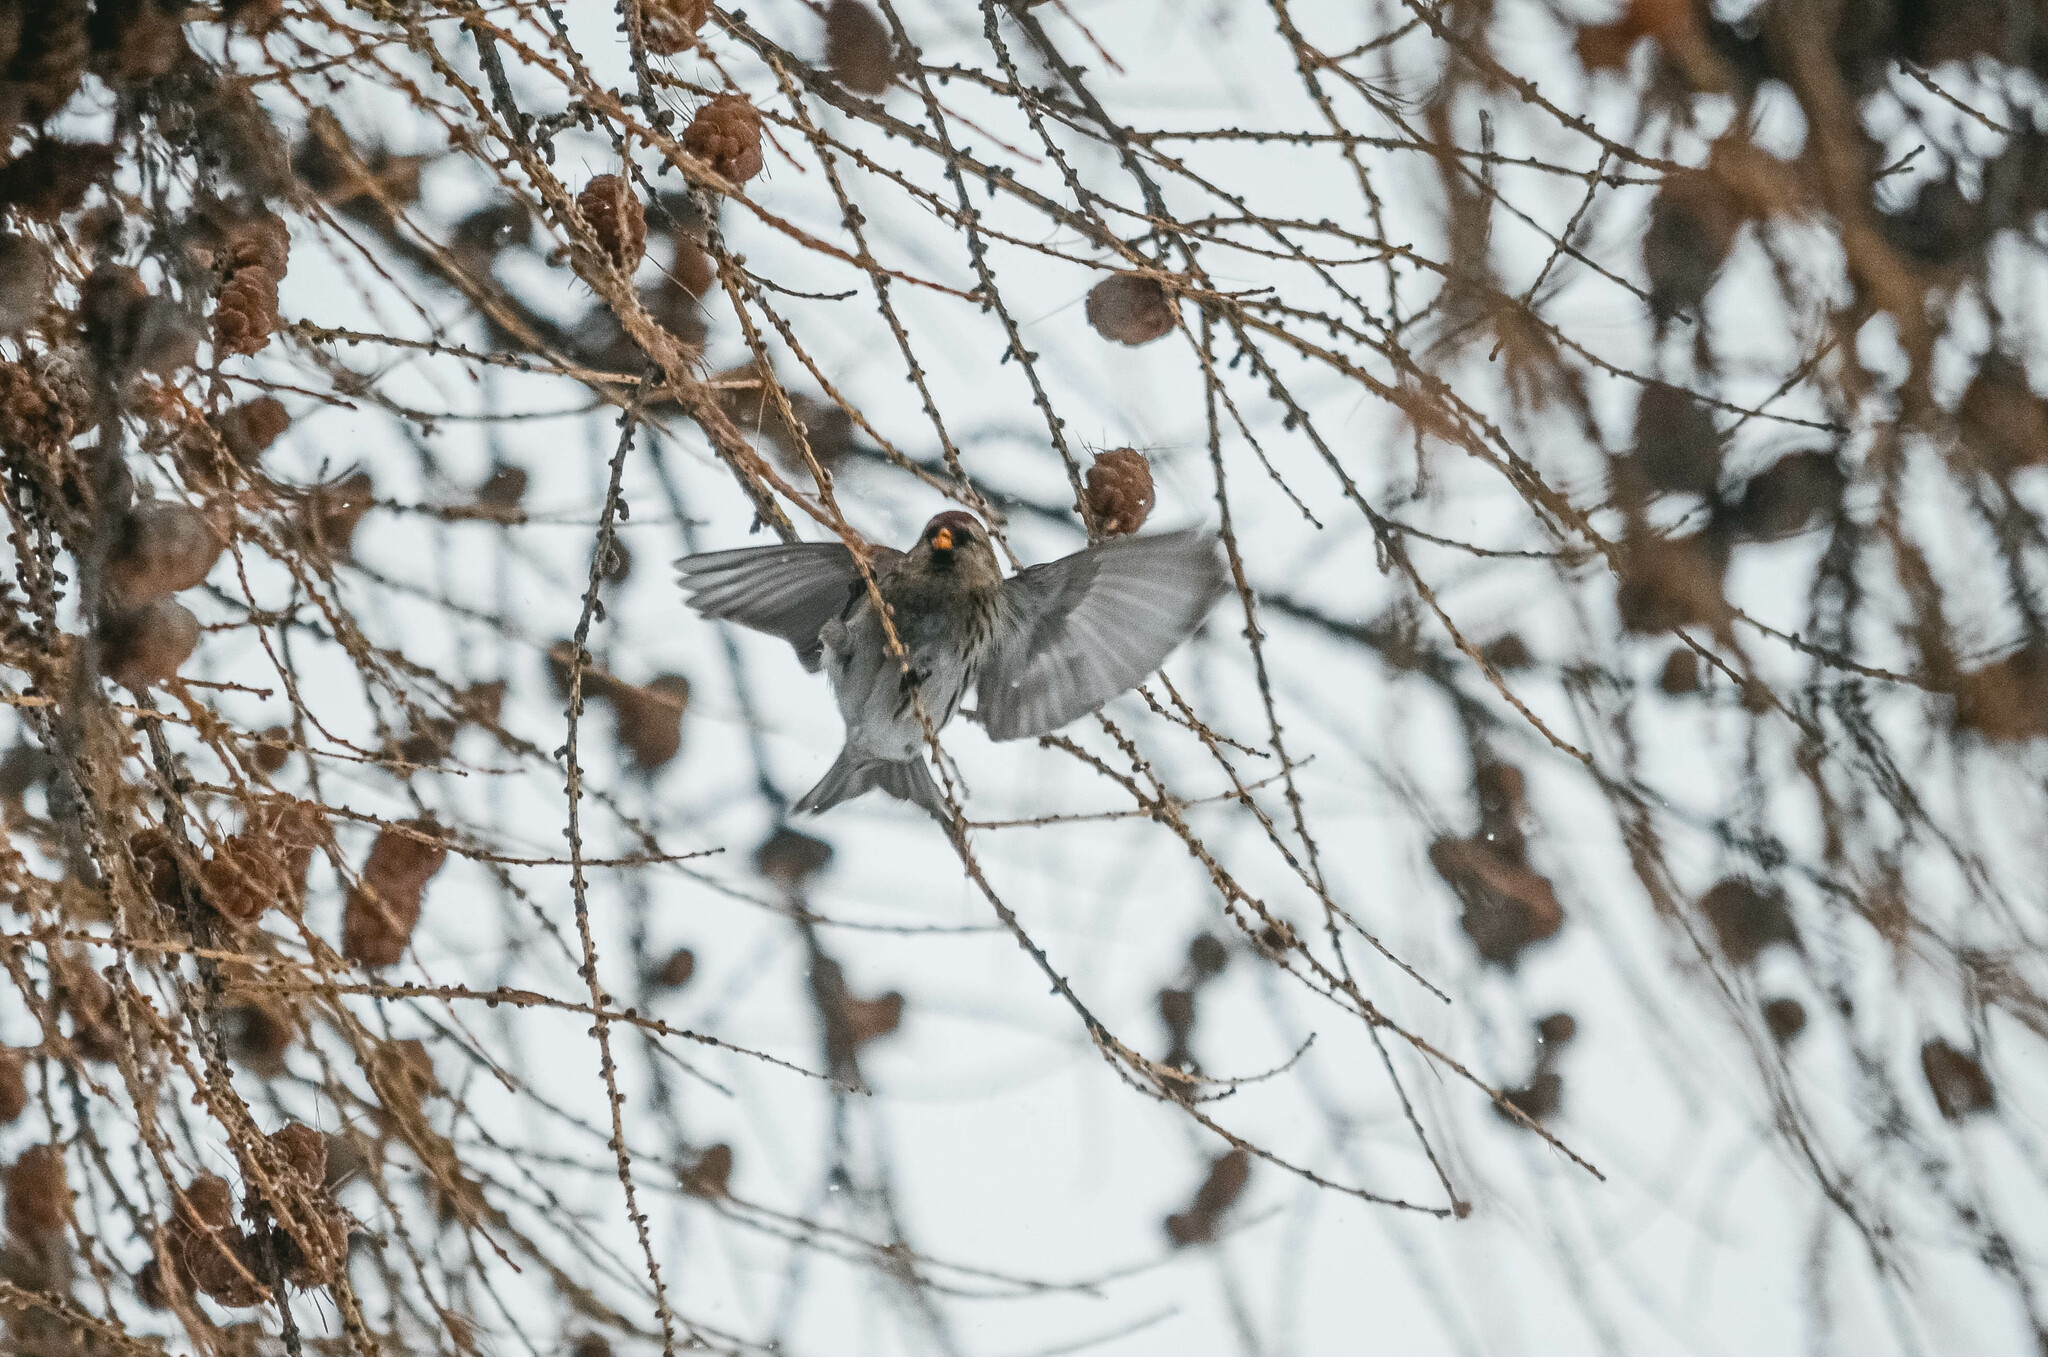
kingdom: Animalia
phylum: Chordata
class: Aves
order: Passeriformes
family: Fringillidae
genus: Acanthis
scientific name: Acanthis flammea
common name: Common redpoll
